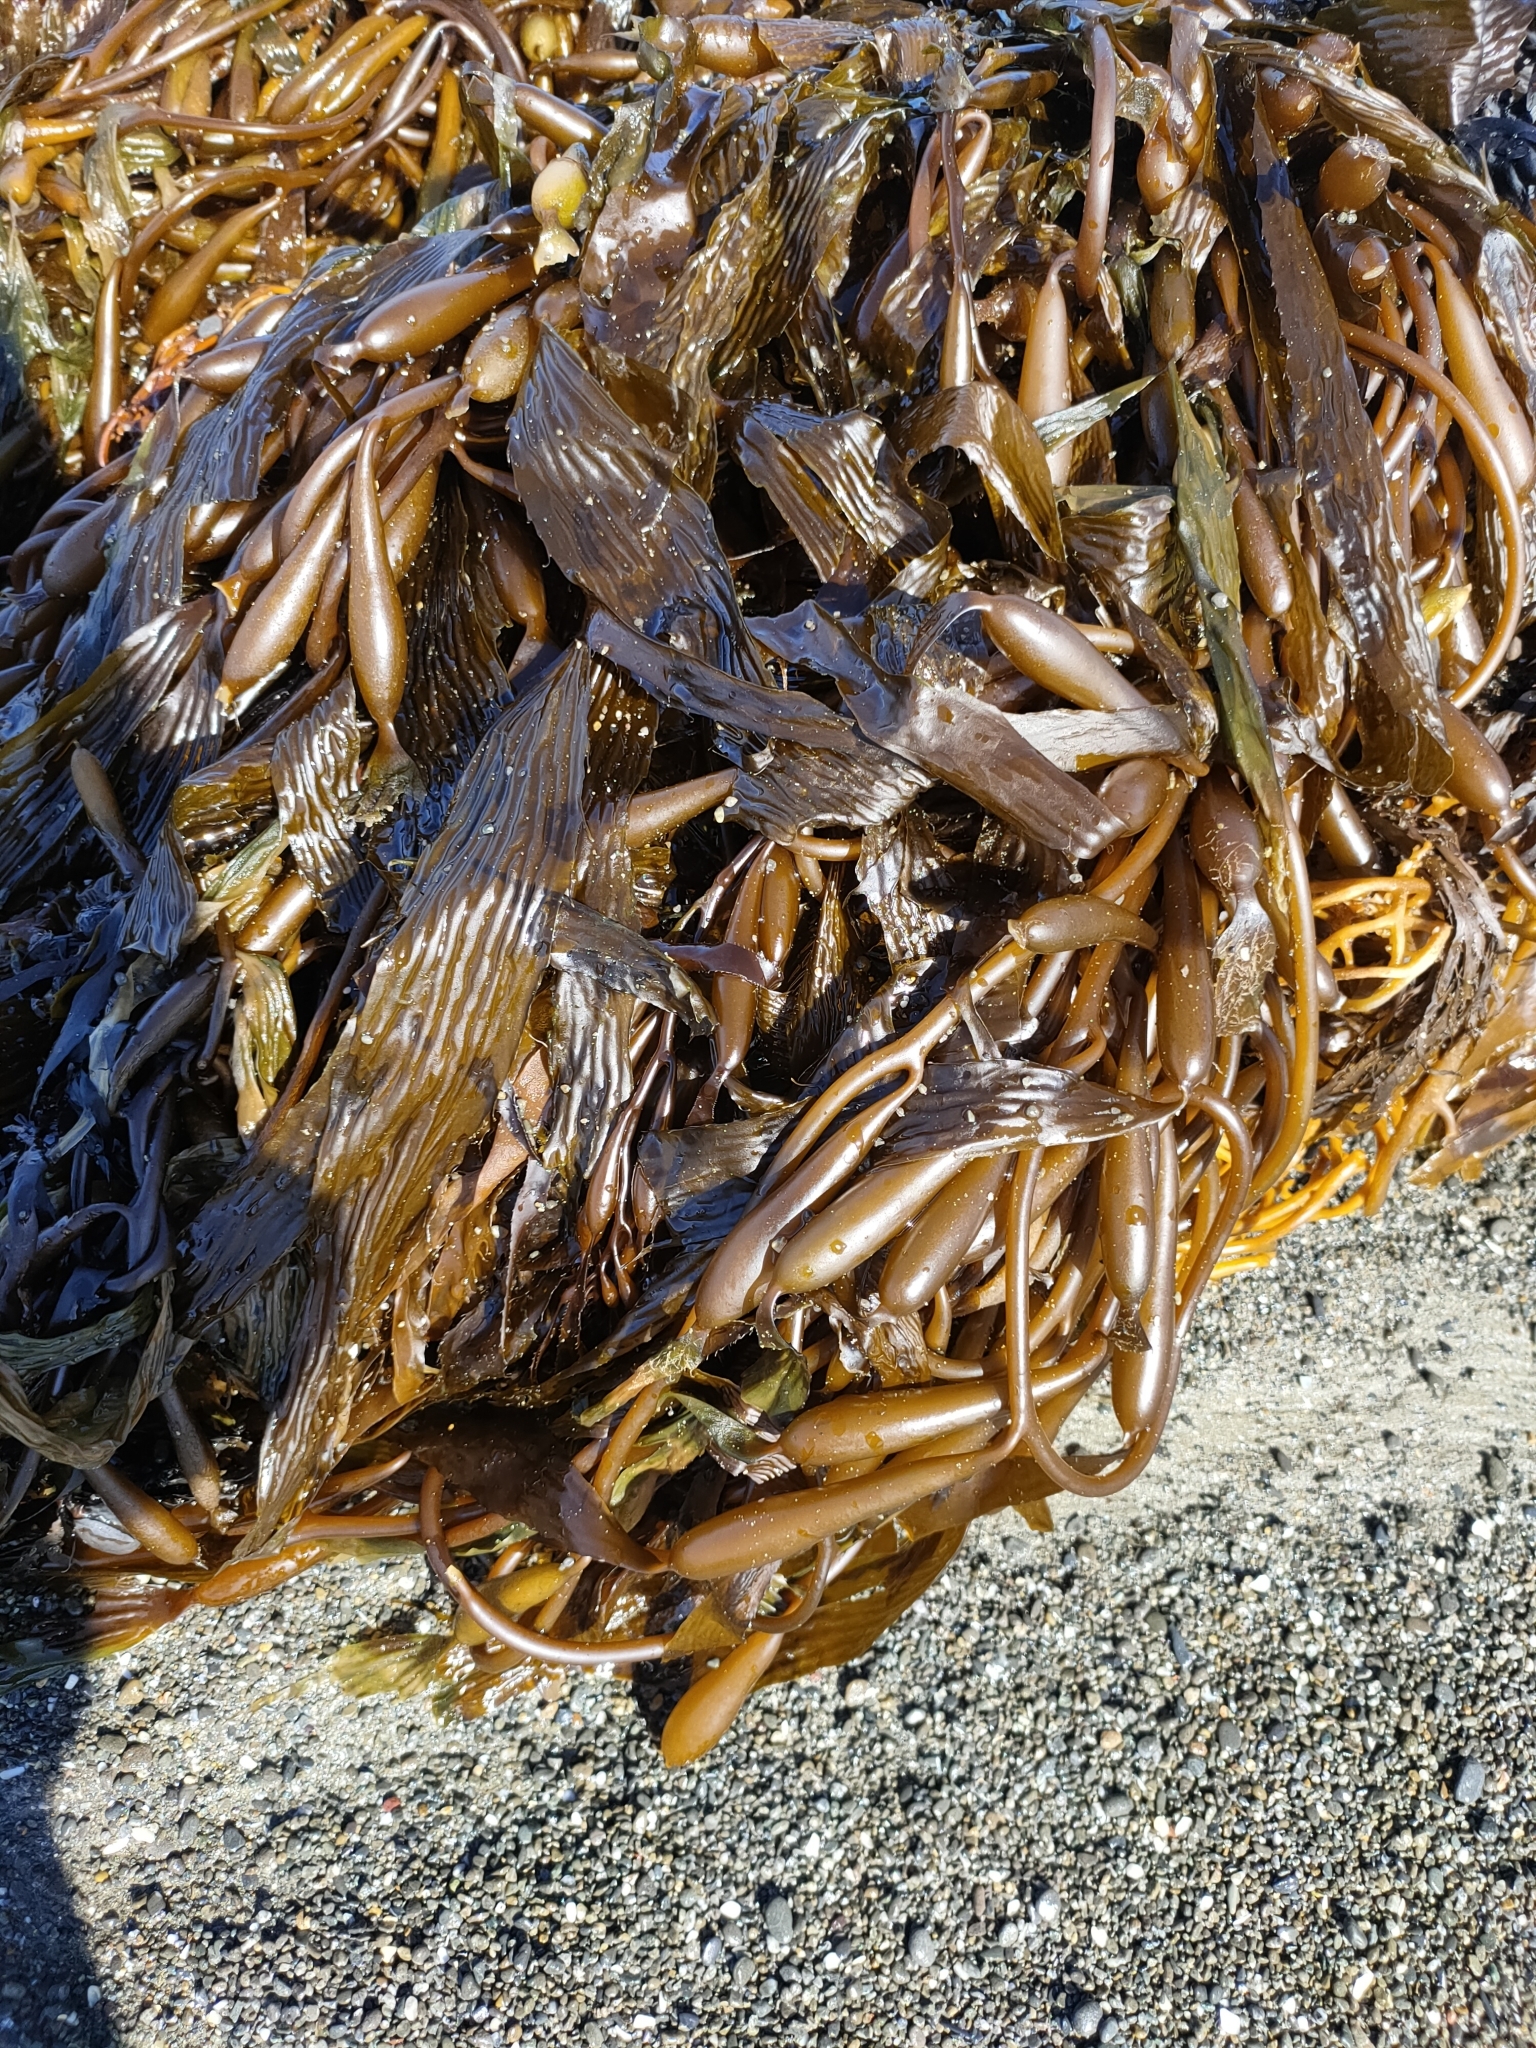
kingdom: Chromista
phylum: Ochrophyta
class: Phaeophyceae
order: Laminariales
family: Laminariaceae
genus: Macrocystis
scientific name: Macrocystis pyrifera
